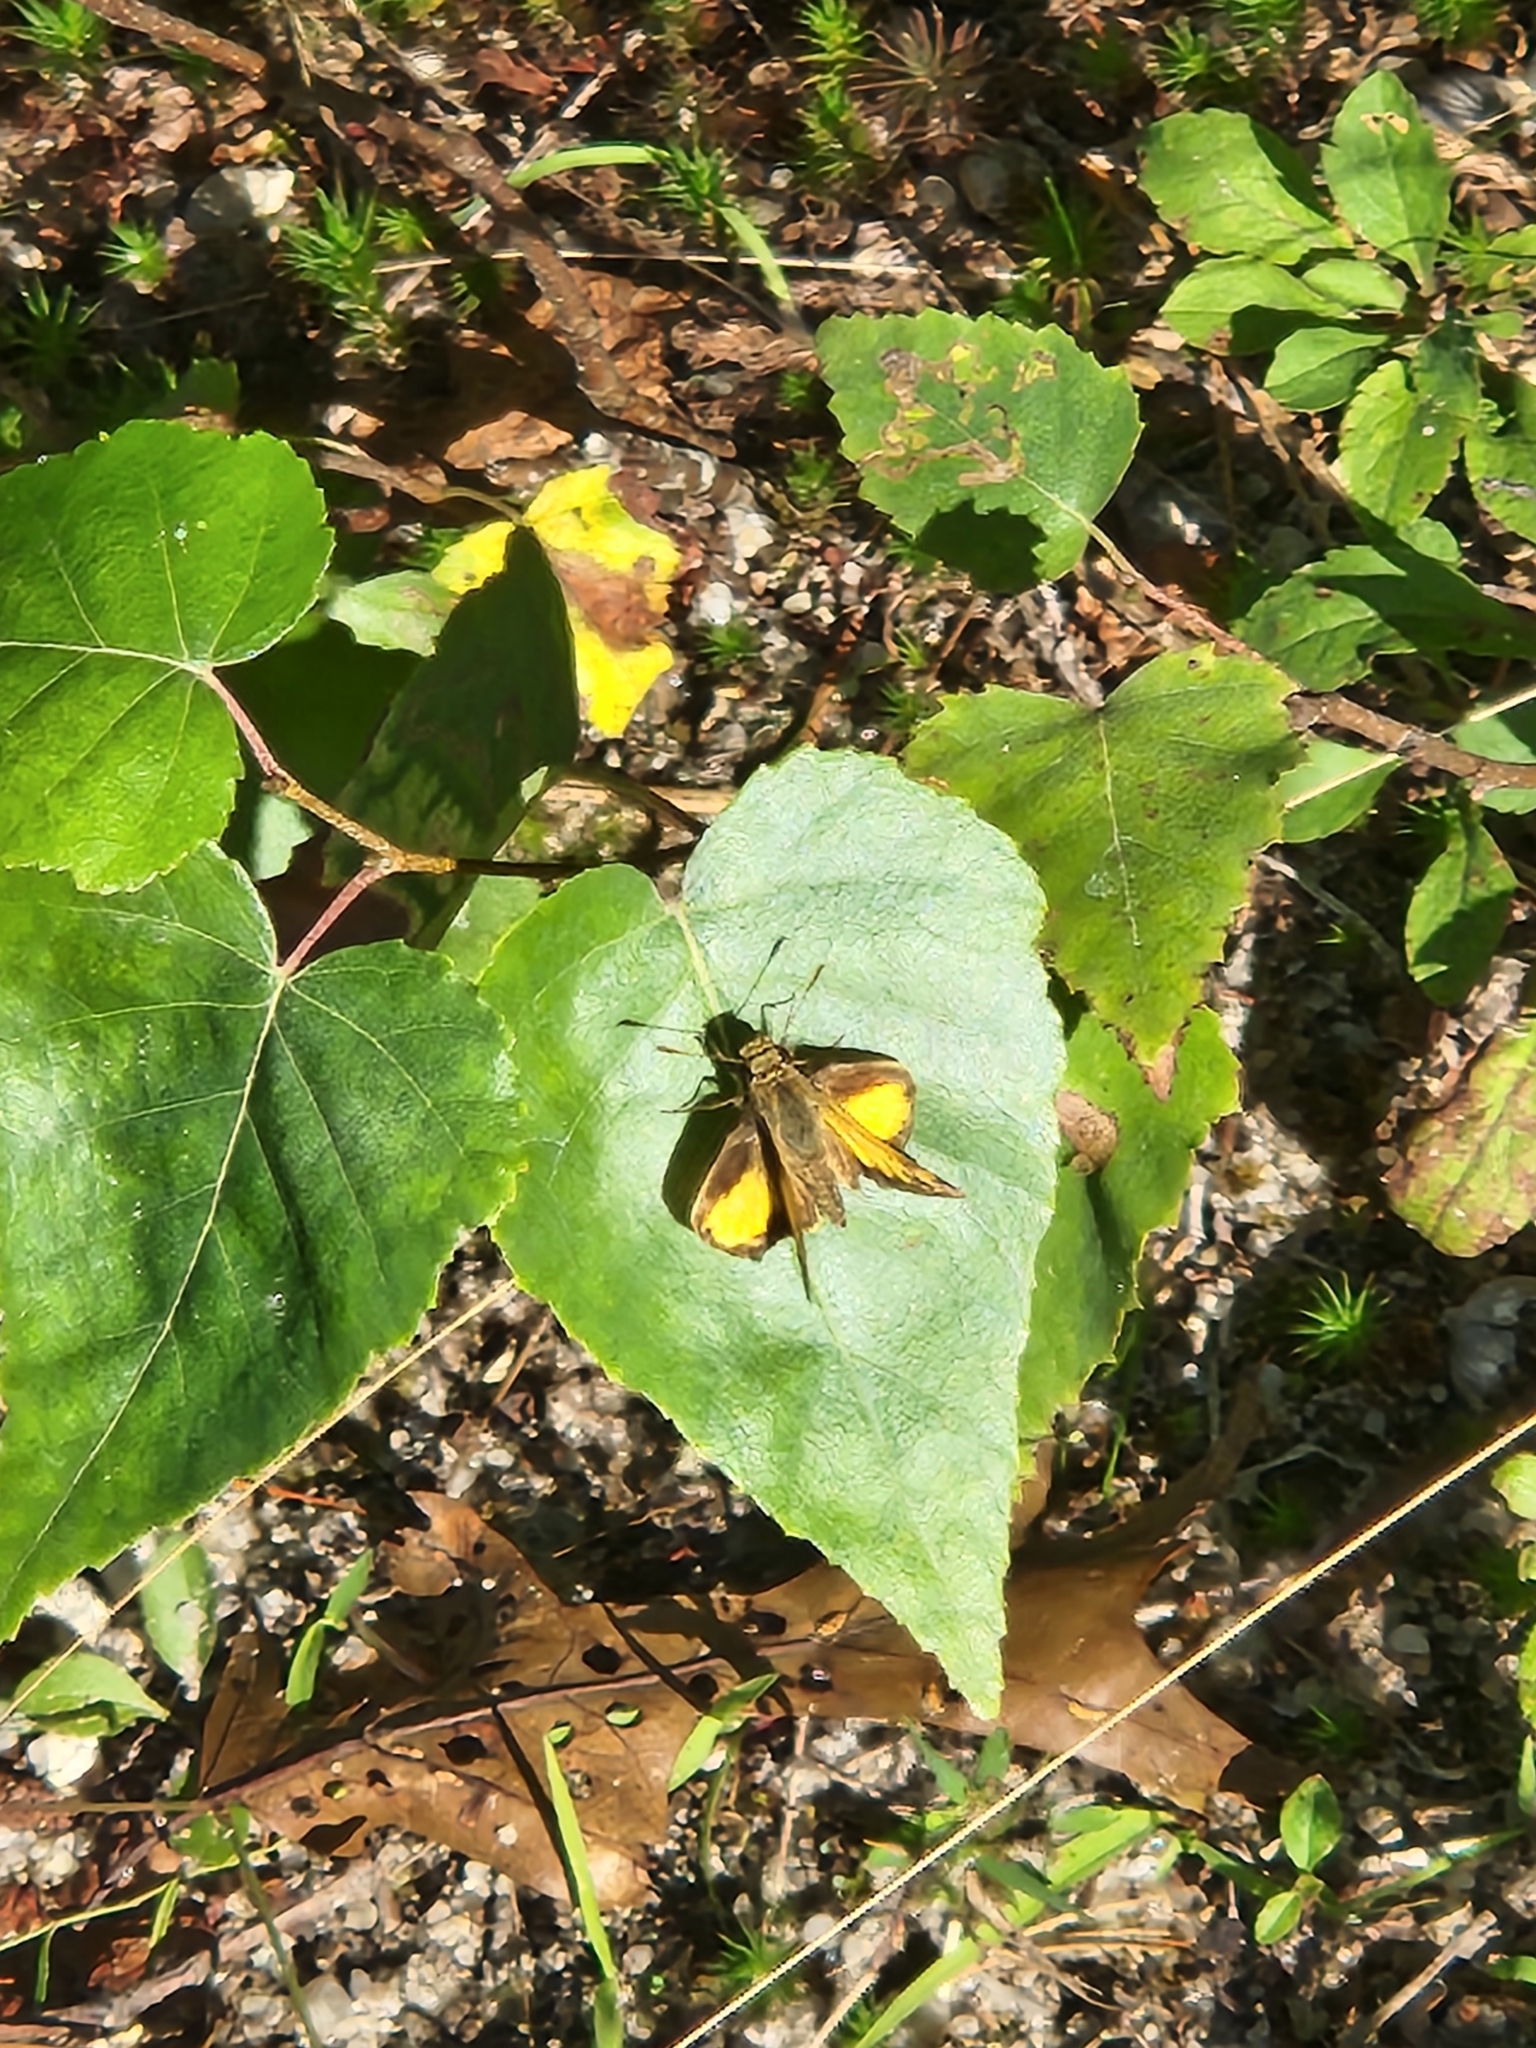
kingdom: Animalia
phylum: Arthropoda
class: Insecta
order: Lepidoptera
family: Hesperiidae
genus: Lon
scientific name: Lon zabulon
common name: Zabulon skipper
